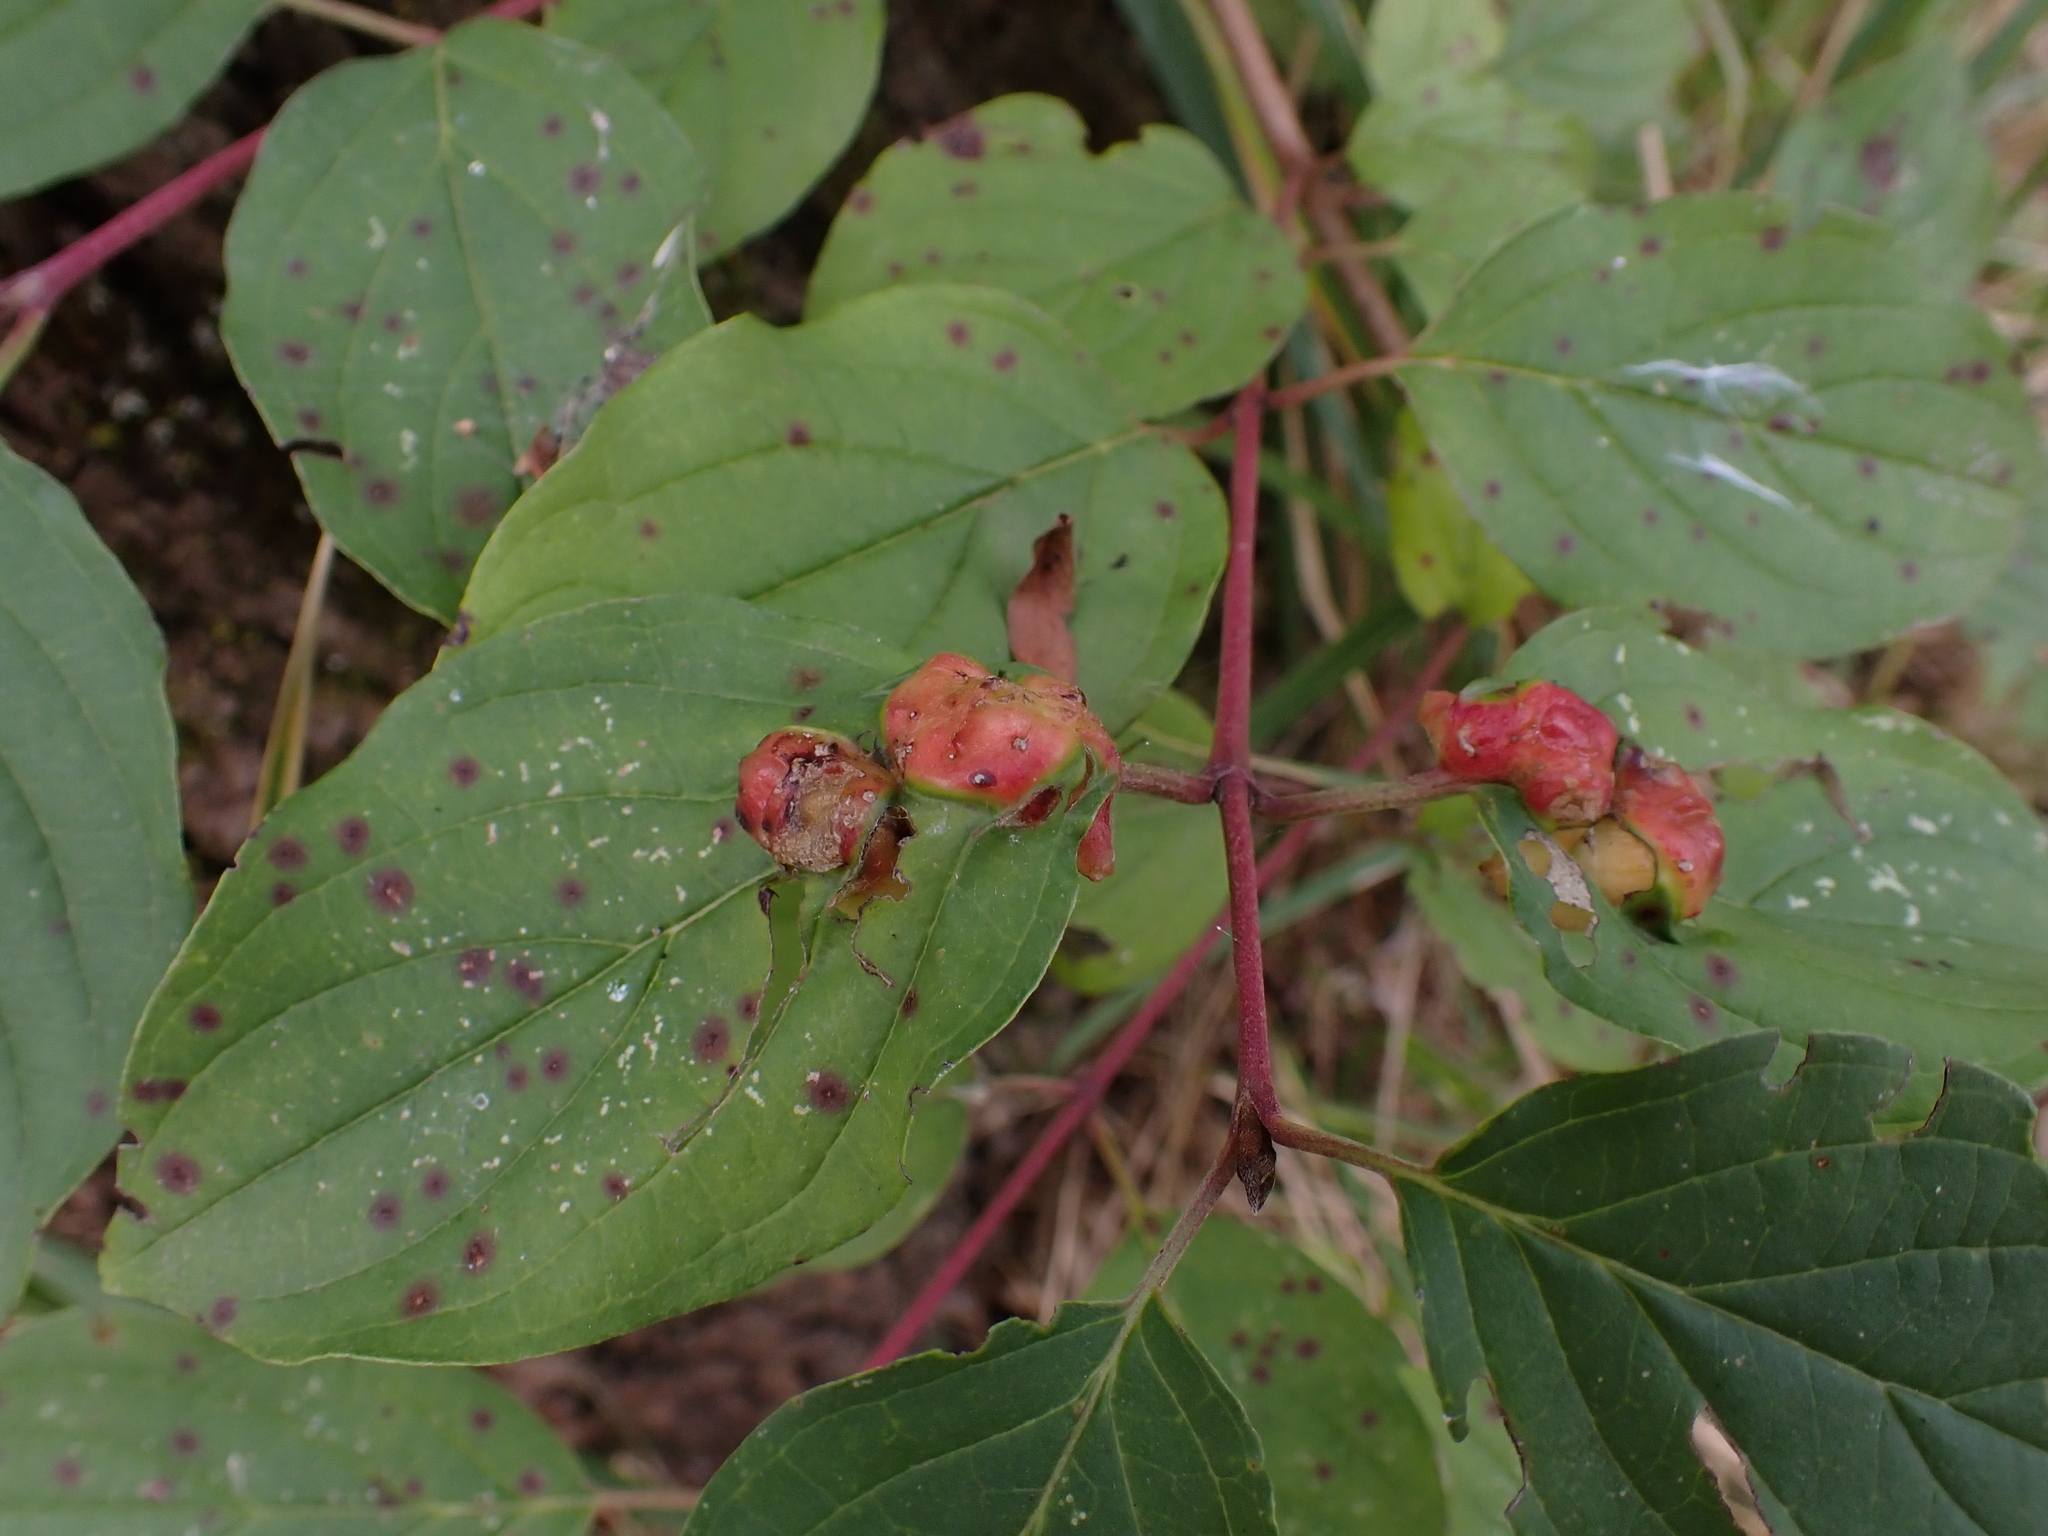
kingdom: Animalia
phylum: Arthropoda
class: Insecta
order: Diptera
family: Cecidomyiidae
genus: Craneiobia
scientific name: Craneiobia corni
